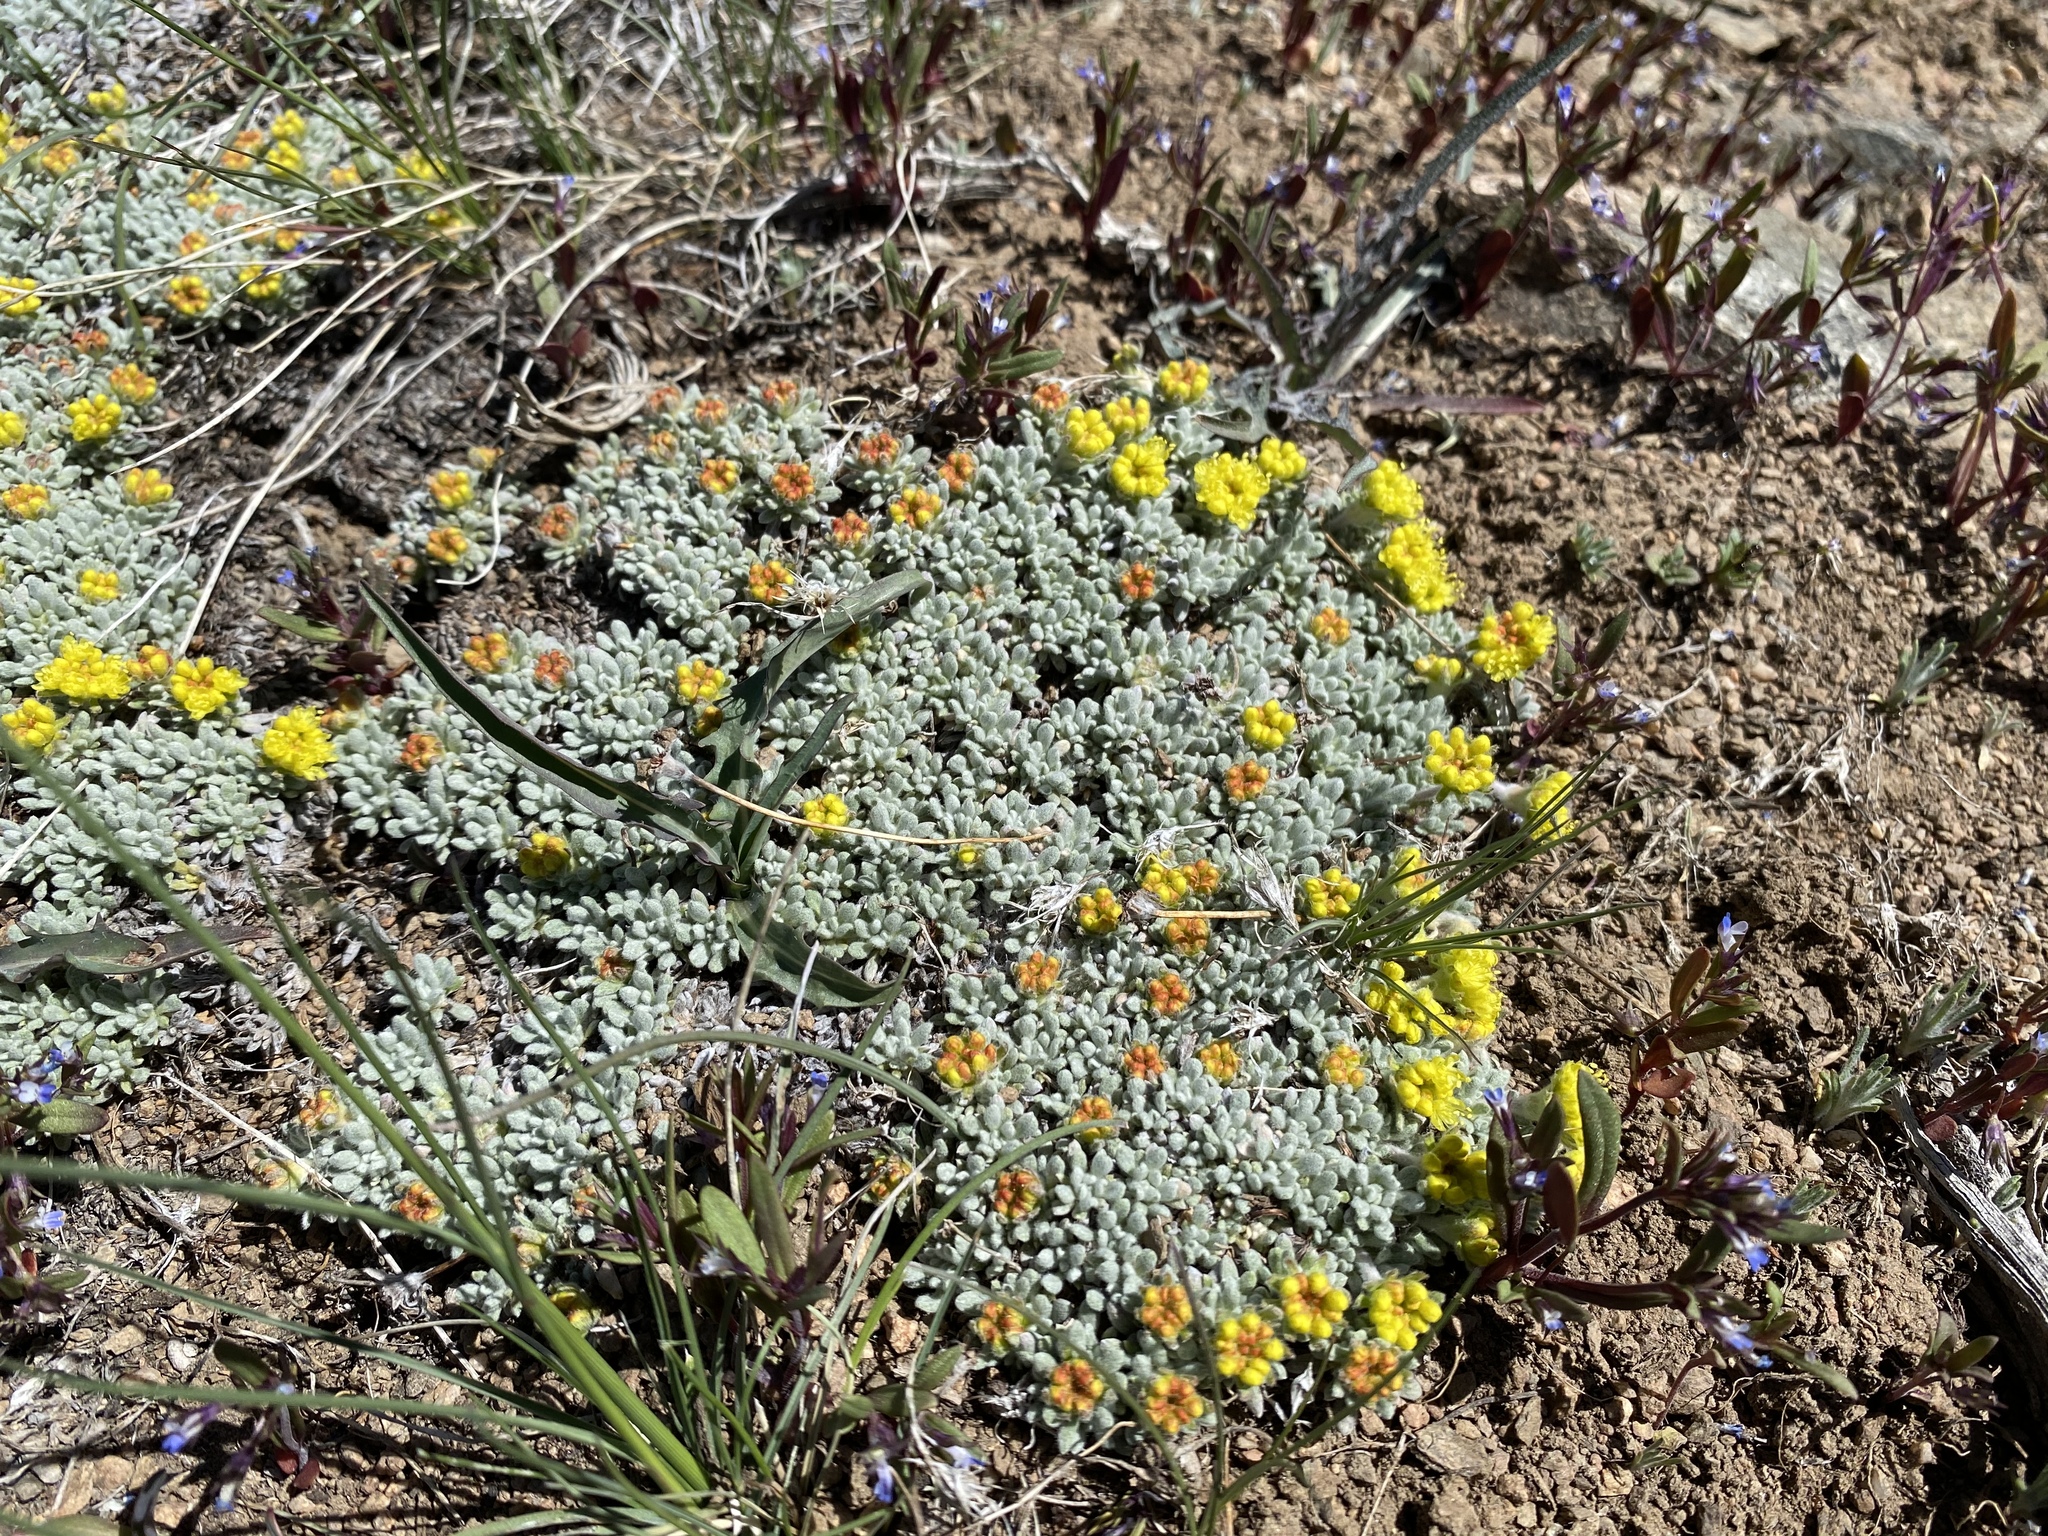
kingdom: Plantae
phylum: Tracheophyta
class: Magnoliopsida
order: Caryophyllales
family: Polygonaceae
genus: Eriogonum
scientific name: Eriogonum caespitosum
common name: Matted wild buckwheat
